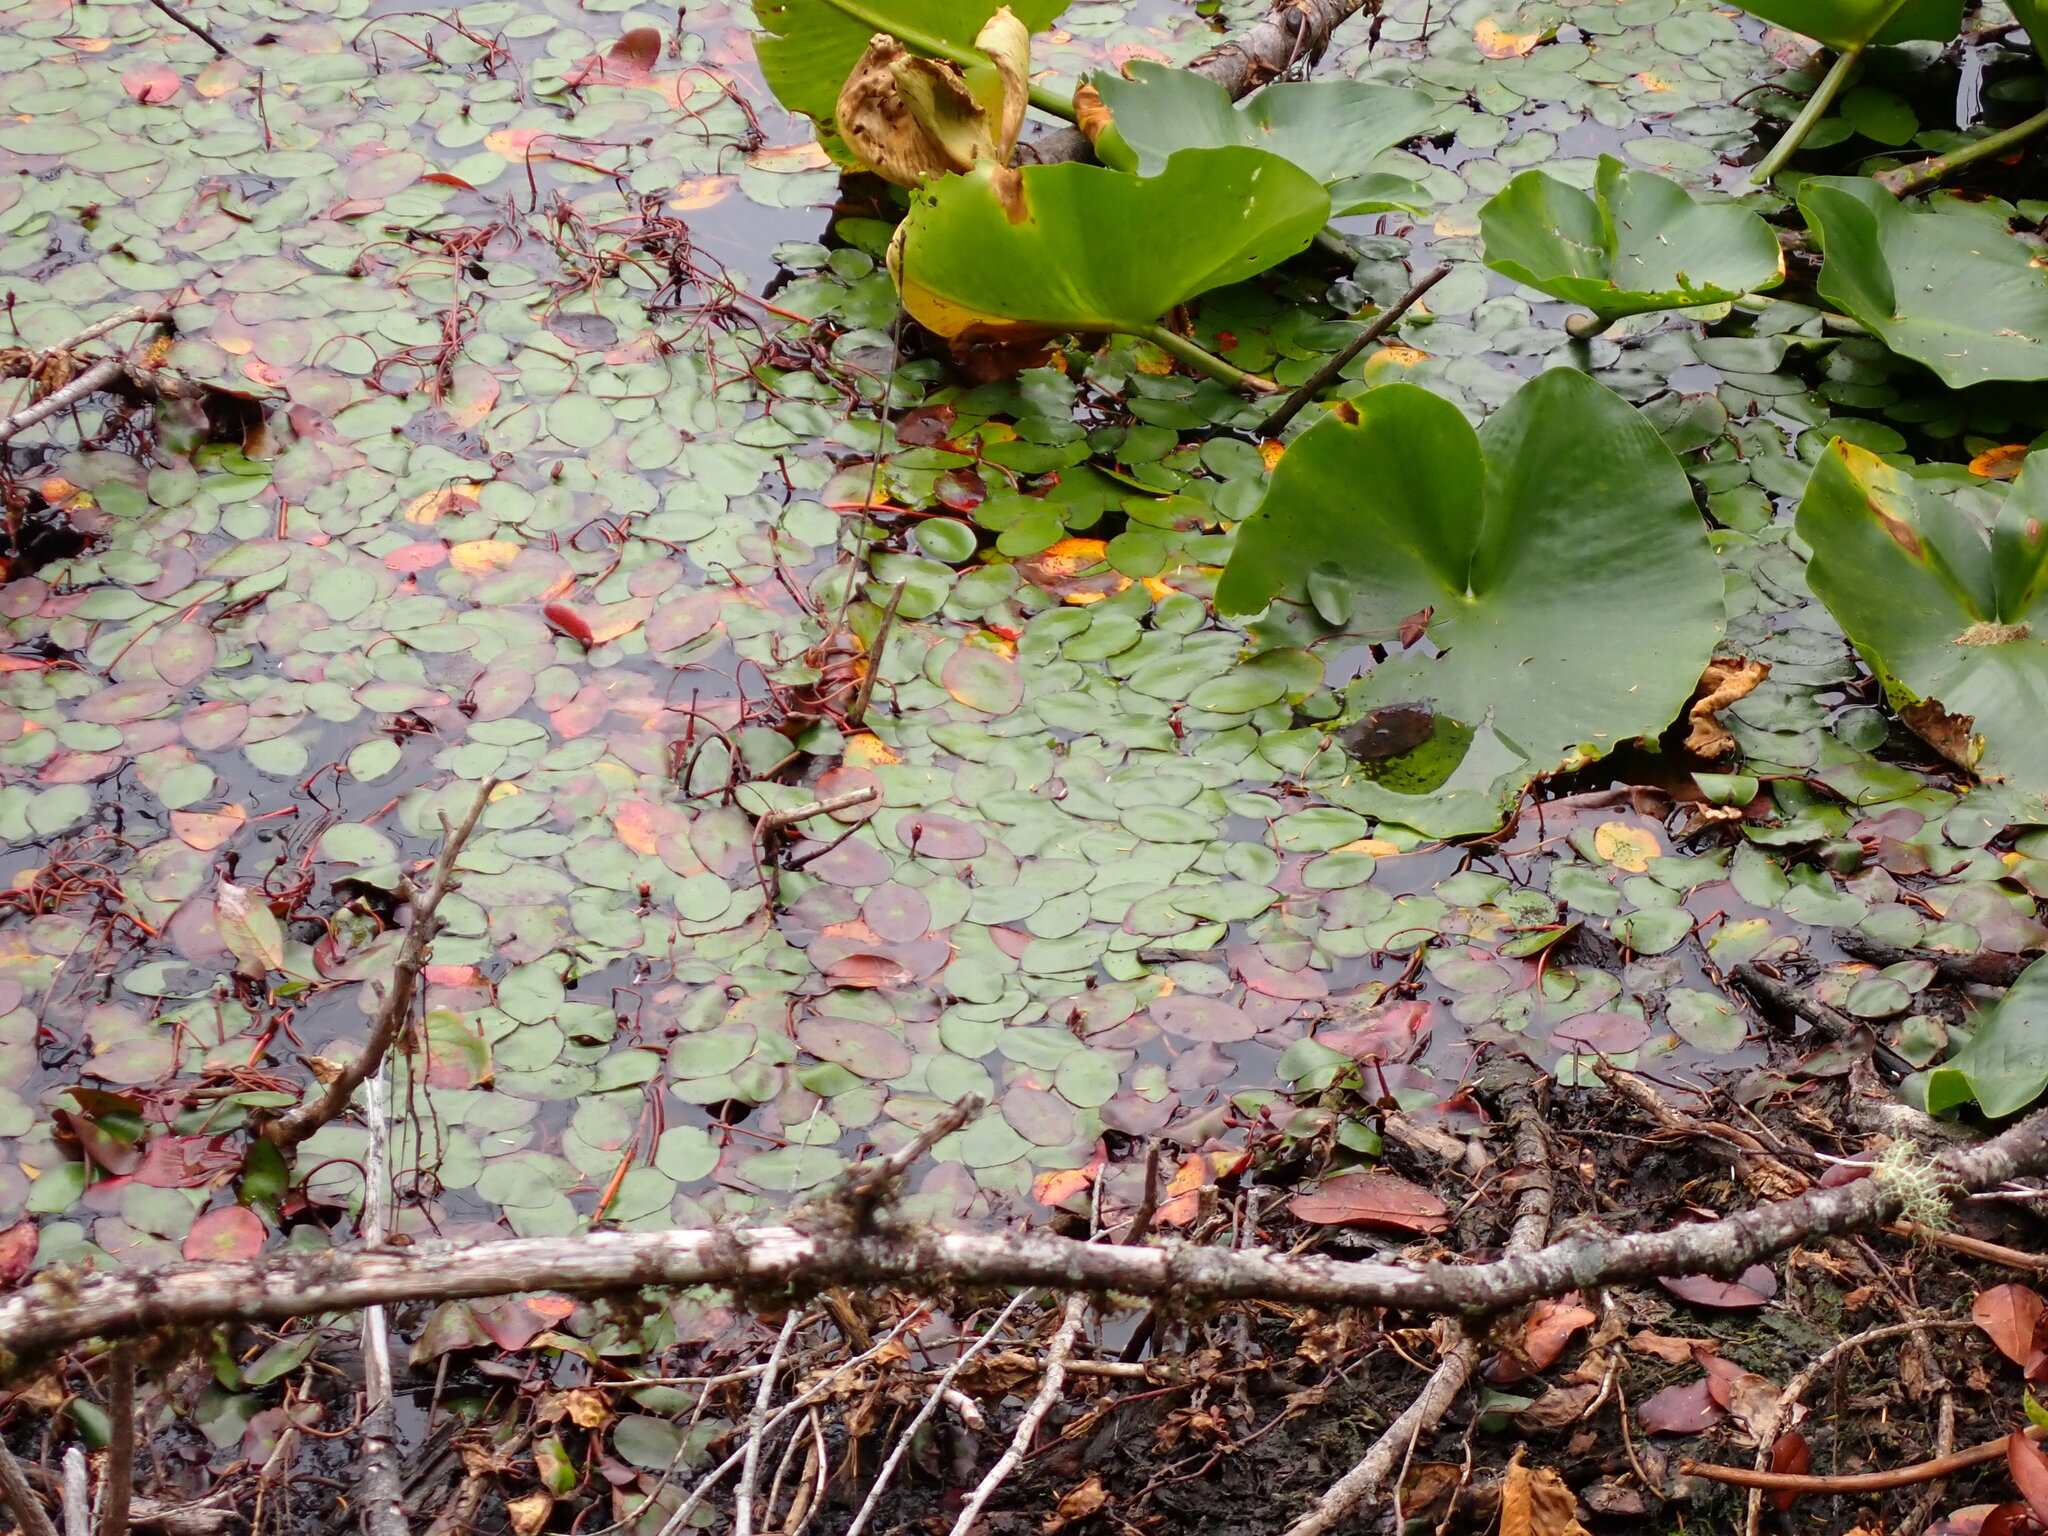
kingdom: Plantae
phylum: Tracheophyta
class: Magnoliopsida
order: Nymphaeales
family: Cabombaceae
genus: Brasenia
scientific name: Brasenia schreberi
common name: Water-shield
